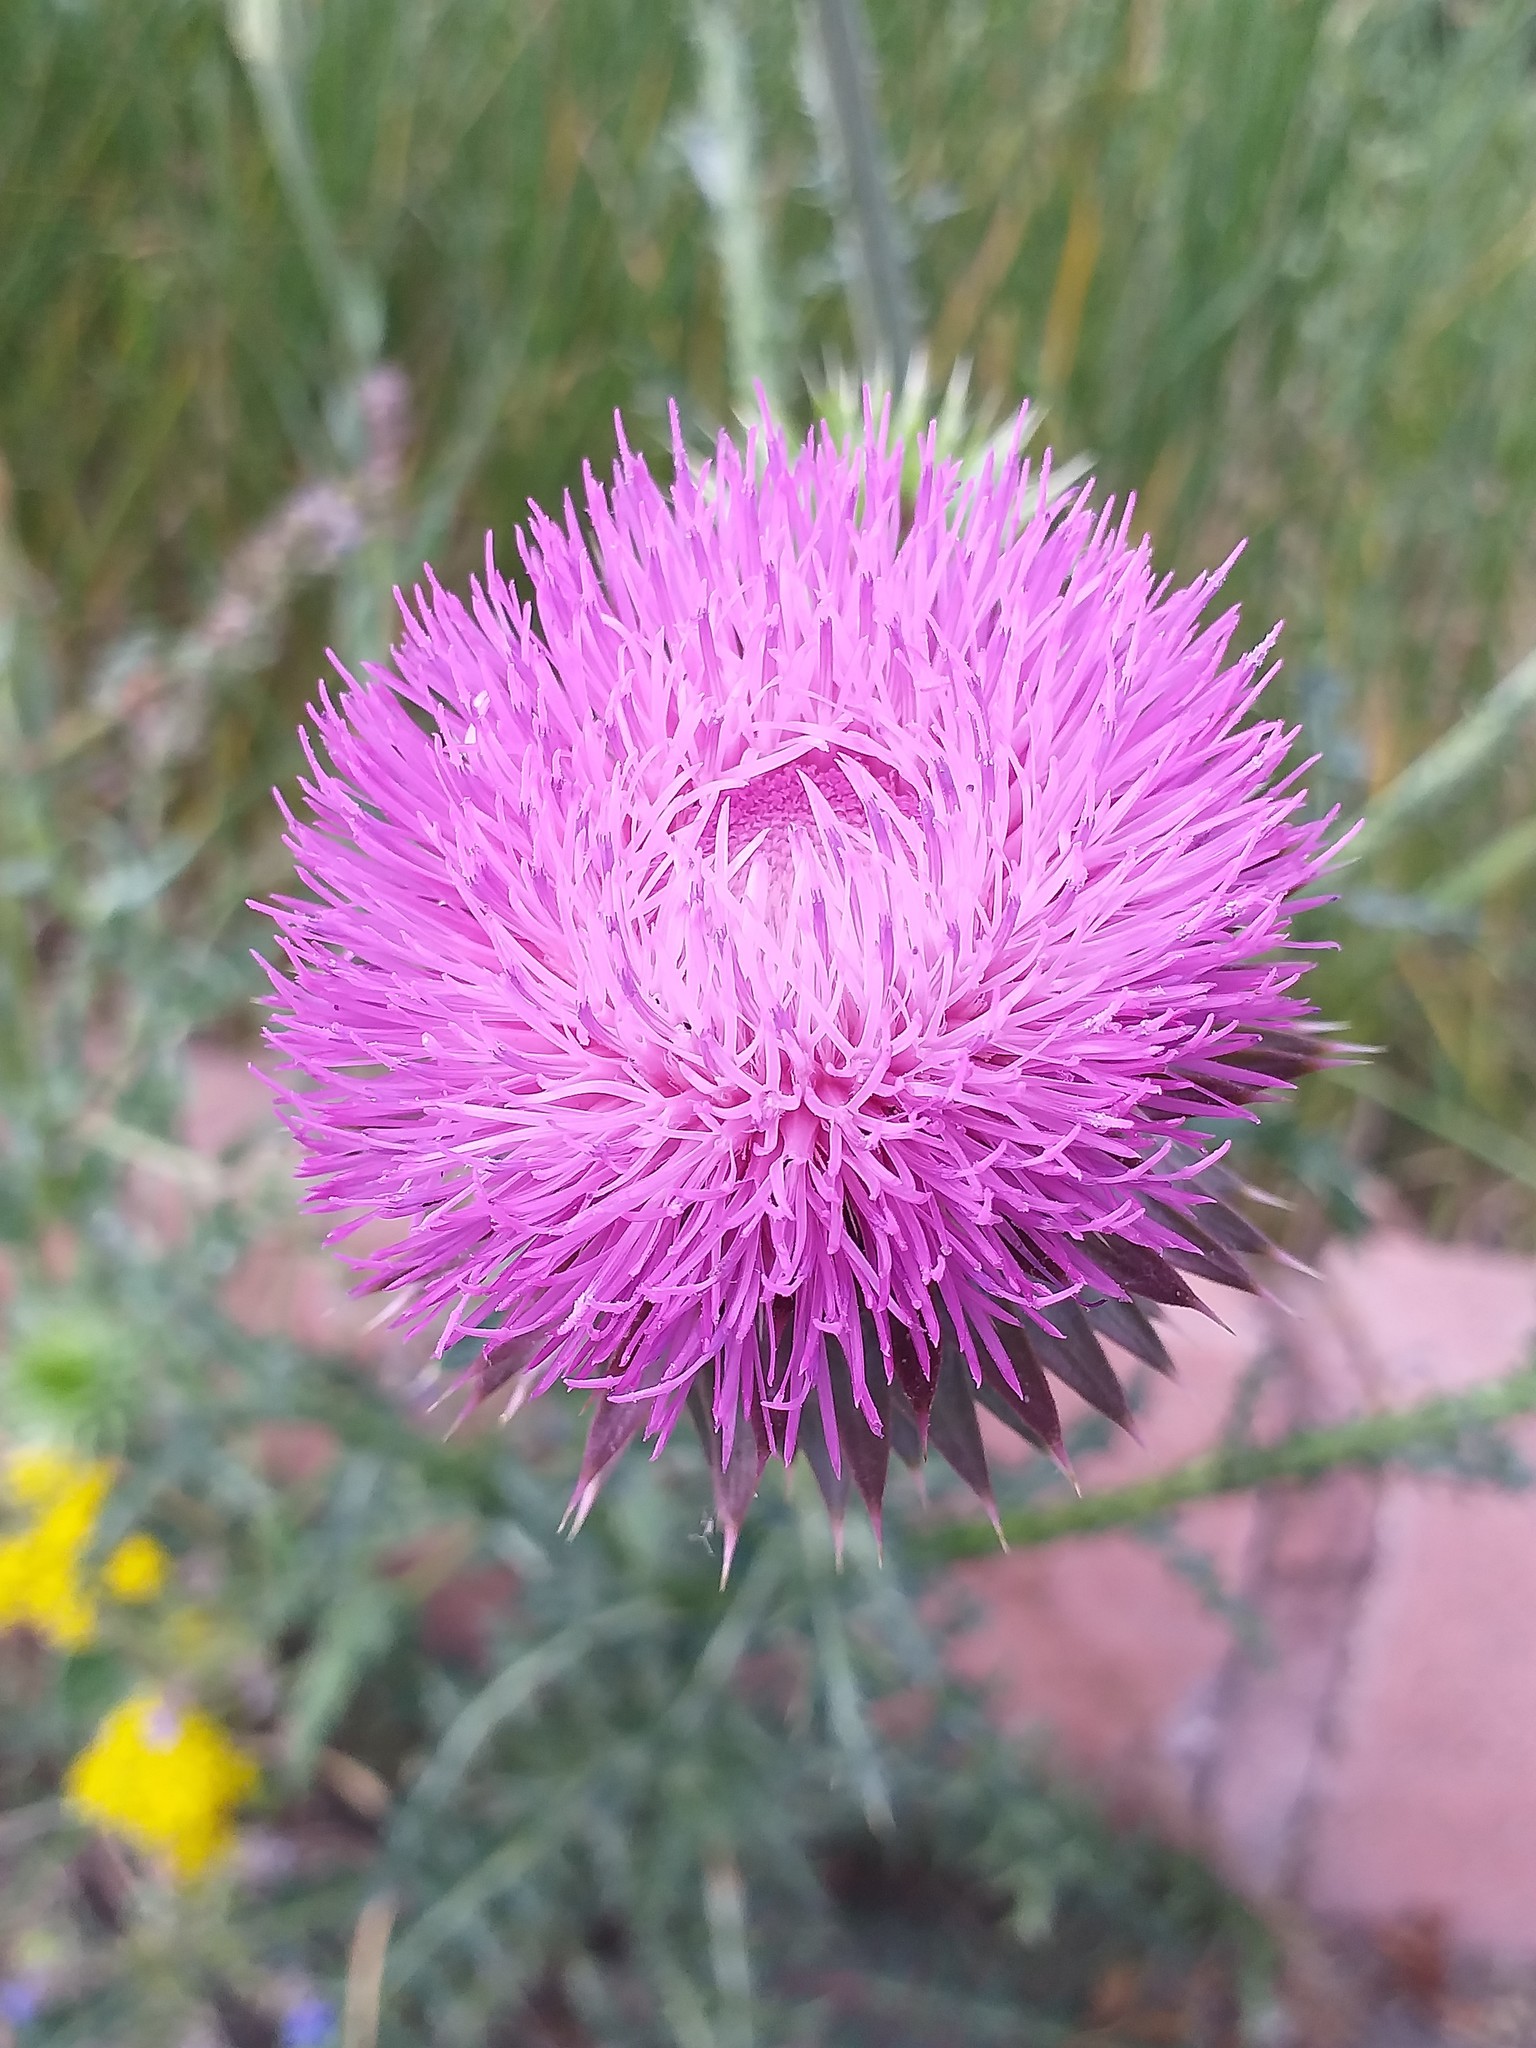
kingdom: Plantae
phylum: Tracheophyta
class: Magnoliopsida
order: Asterales
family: Asteraceae
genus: Carduus
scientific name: Carduus nutans
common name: Musk thistle
